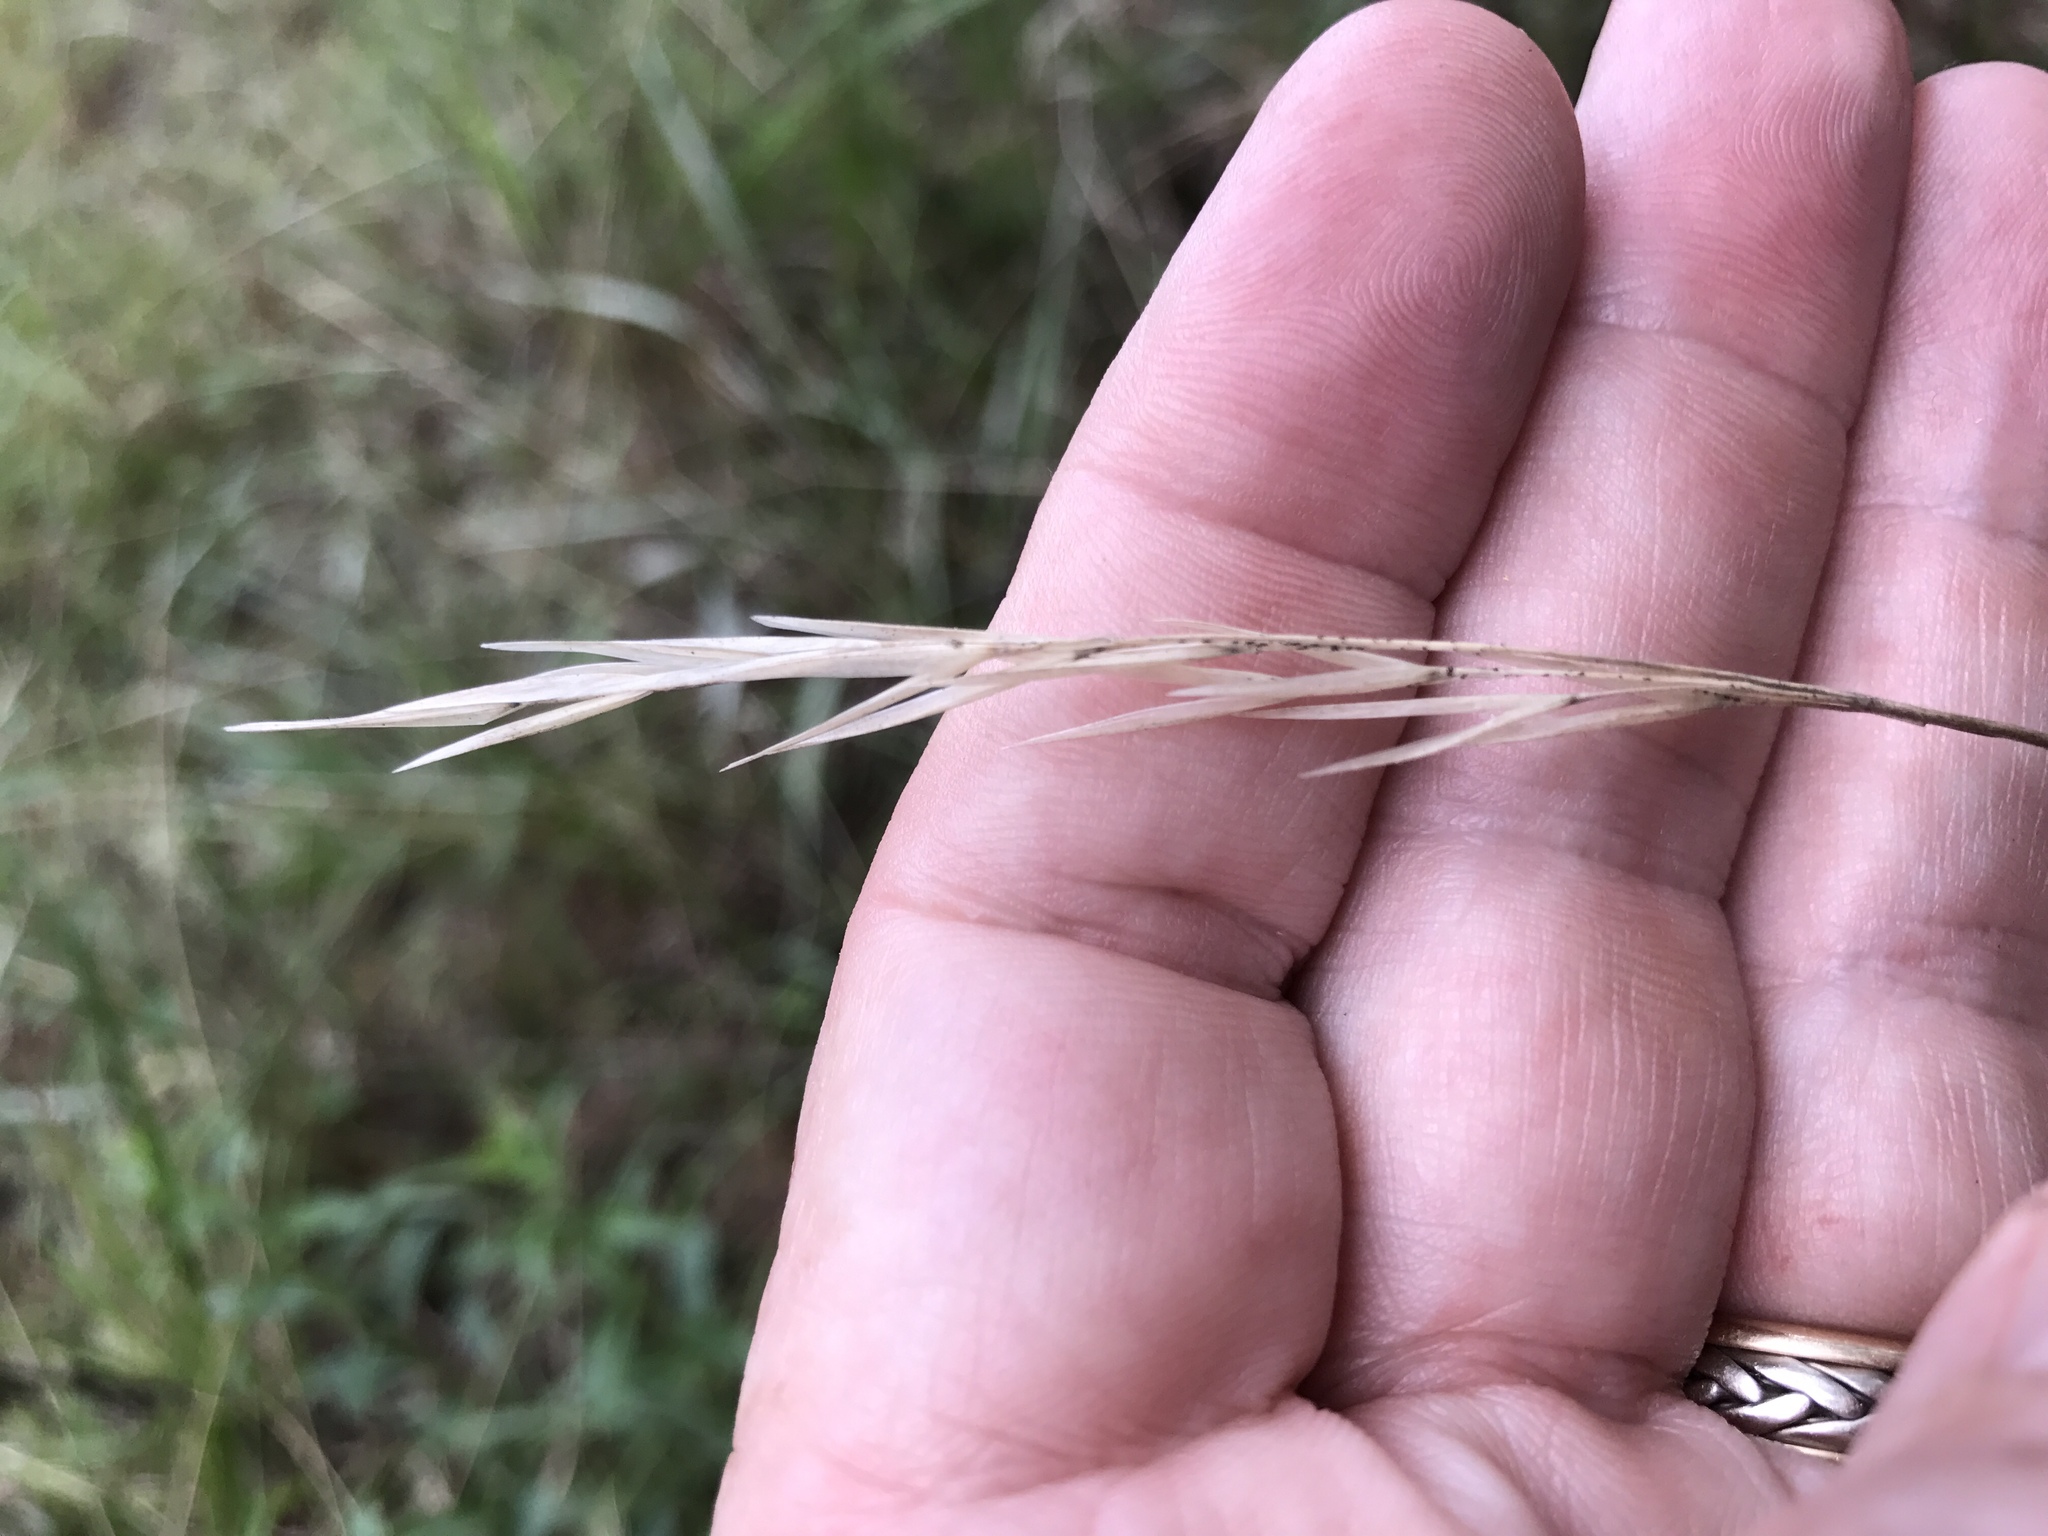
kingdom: Plantae
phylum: Tracheophyta
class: Liliopsida
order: Poales
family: Poaceae
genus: Danthonia
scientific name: Danthonia sericea
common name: Downy danthonia
